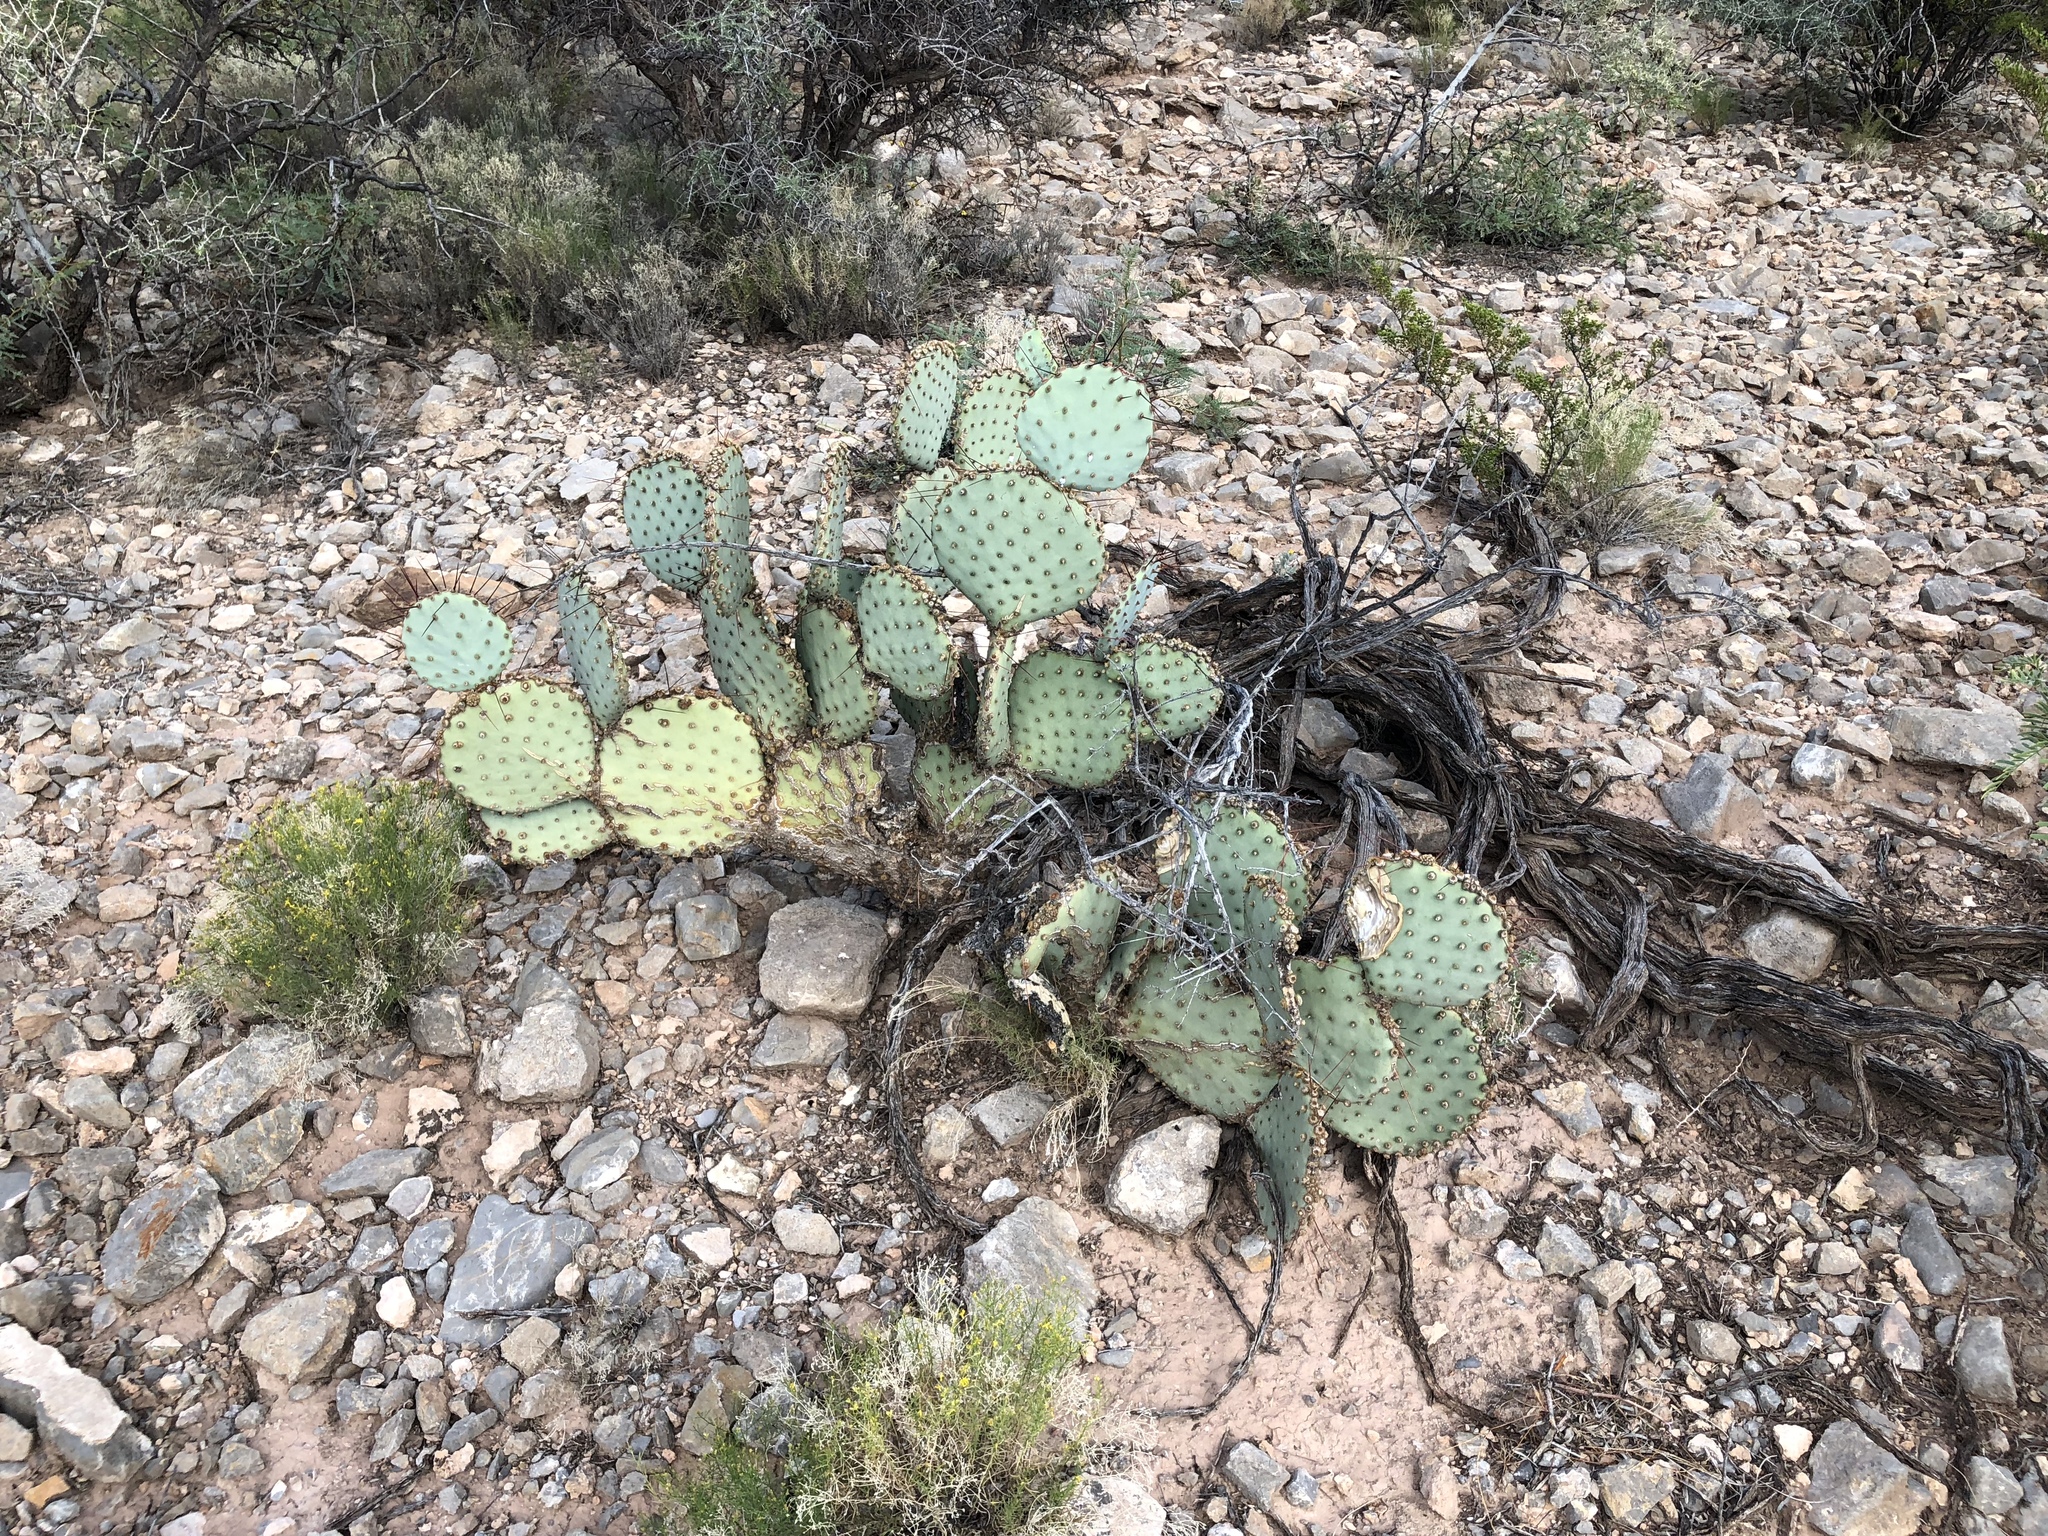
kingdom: Plantae
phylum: Tracheophyta
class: Magnoliopsida
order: Caryophyllales
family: Cactaceae
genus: Opuntia
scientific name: Opuntia macrocentra
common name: Purple prickly-pear
